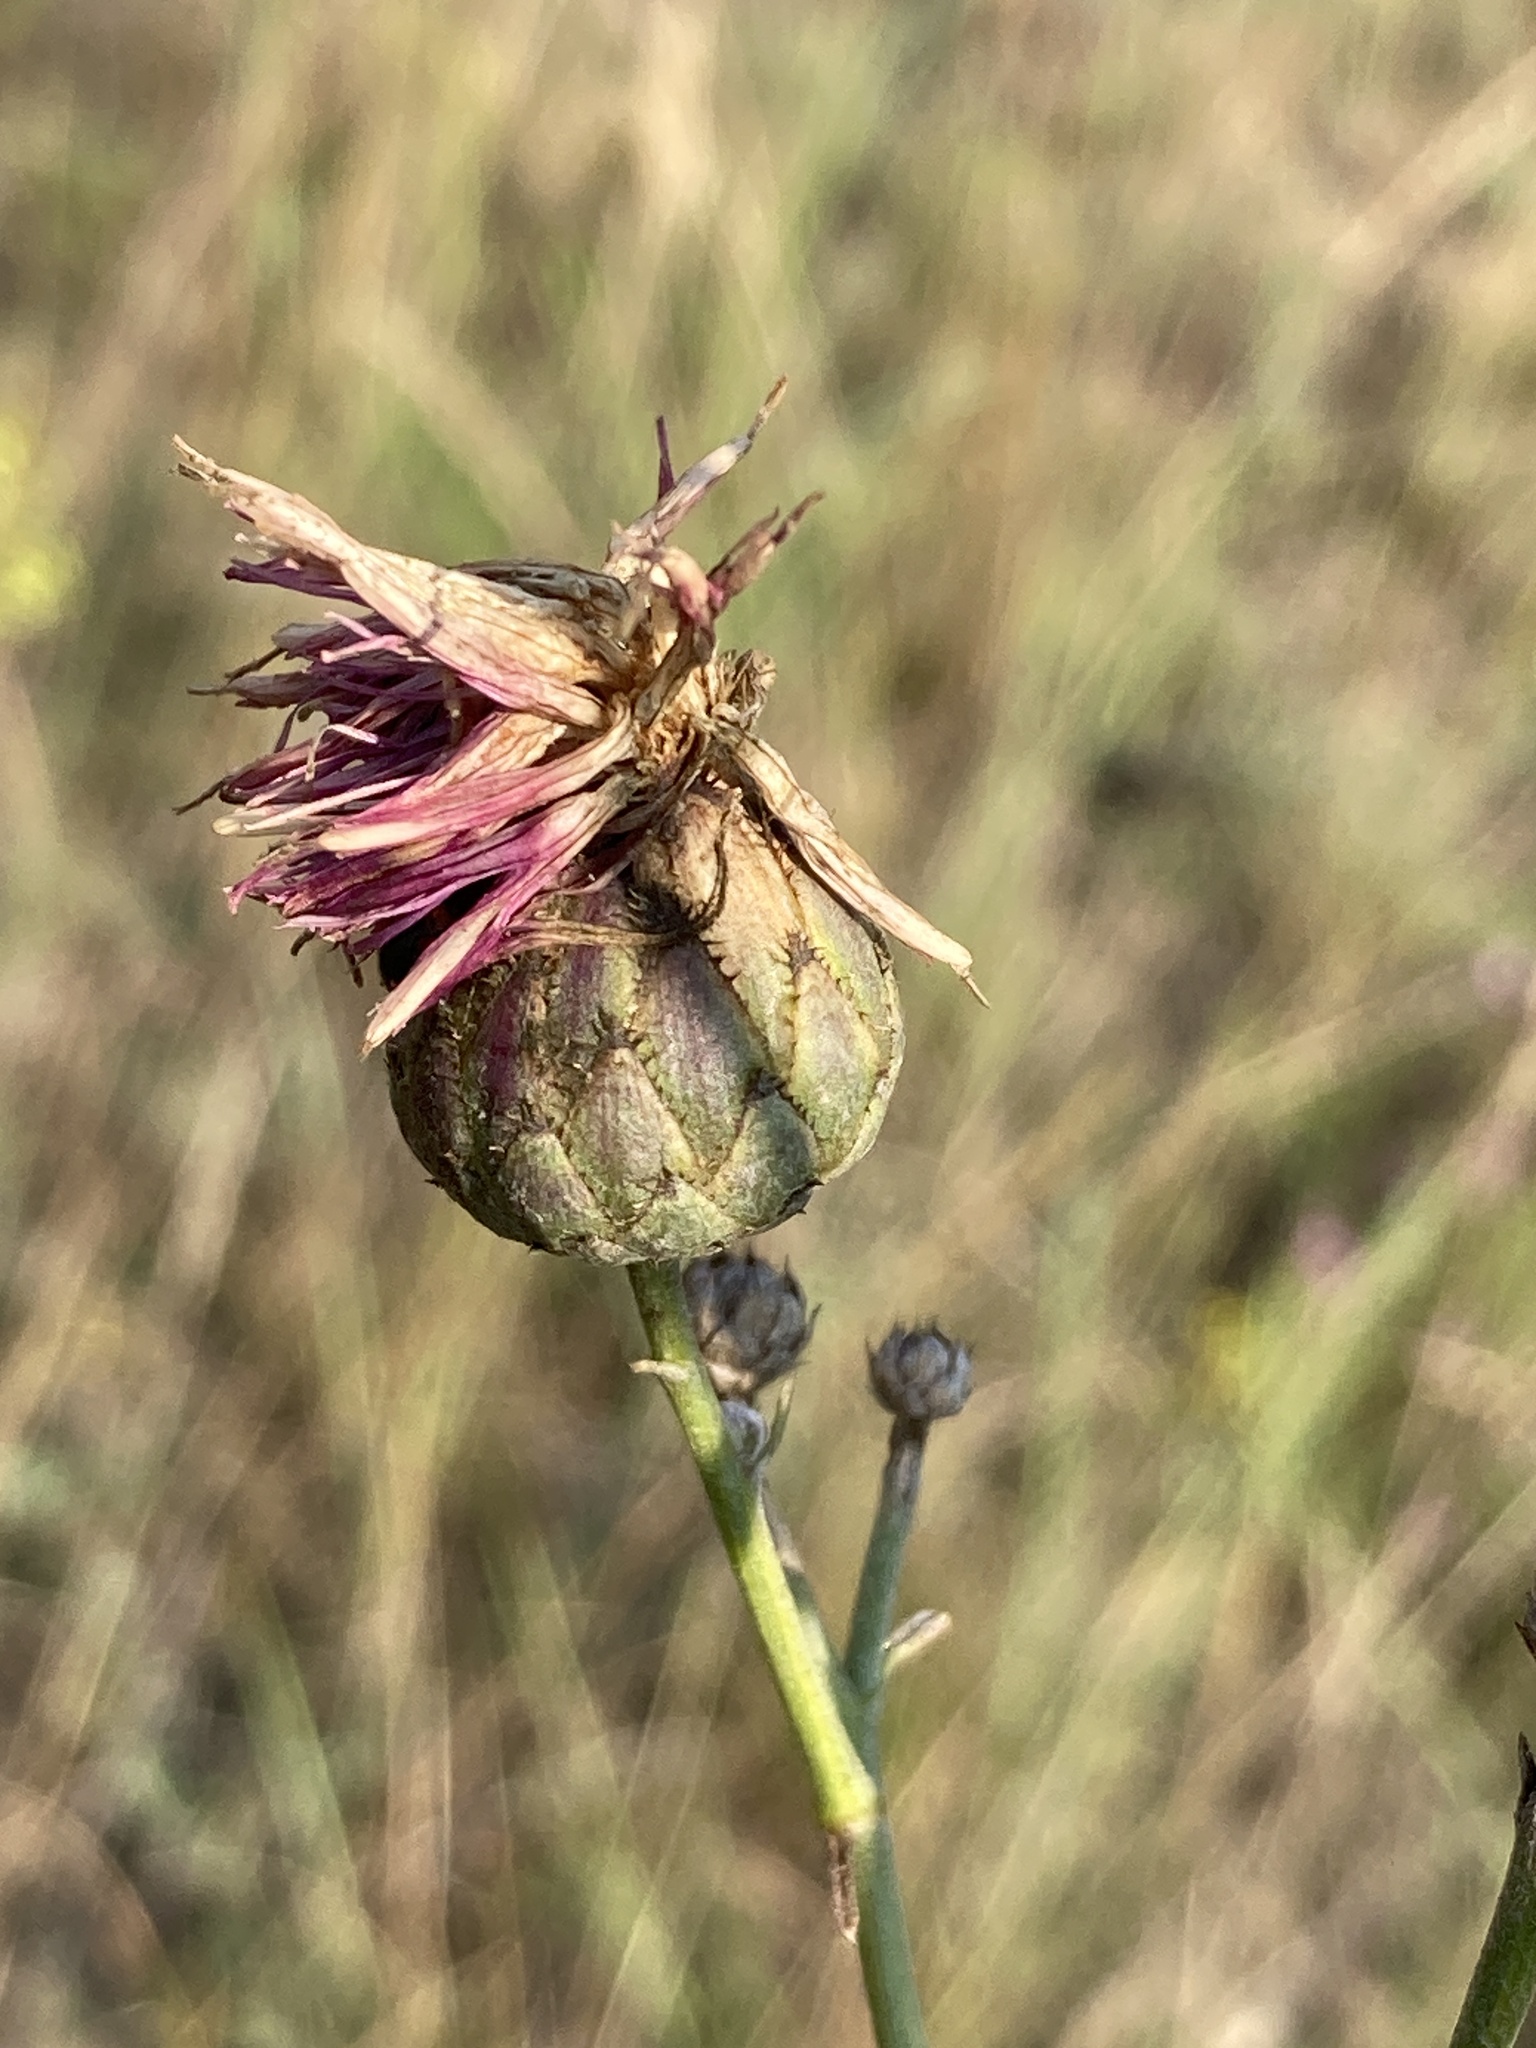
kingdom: Plantae
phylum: Tracheophyta
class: Magnoliopsida
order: Asterales
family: Asteraceae
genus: Centaurea
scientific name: Centaurea scabiosa
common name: Greater knapweed
